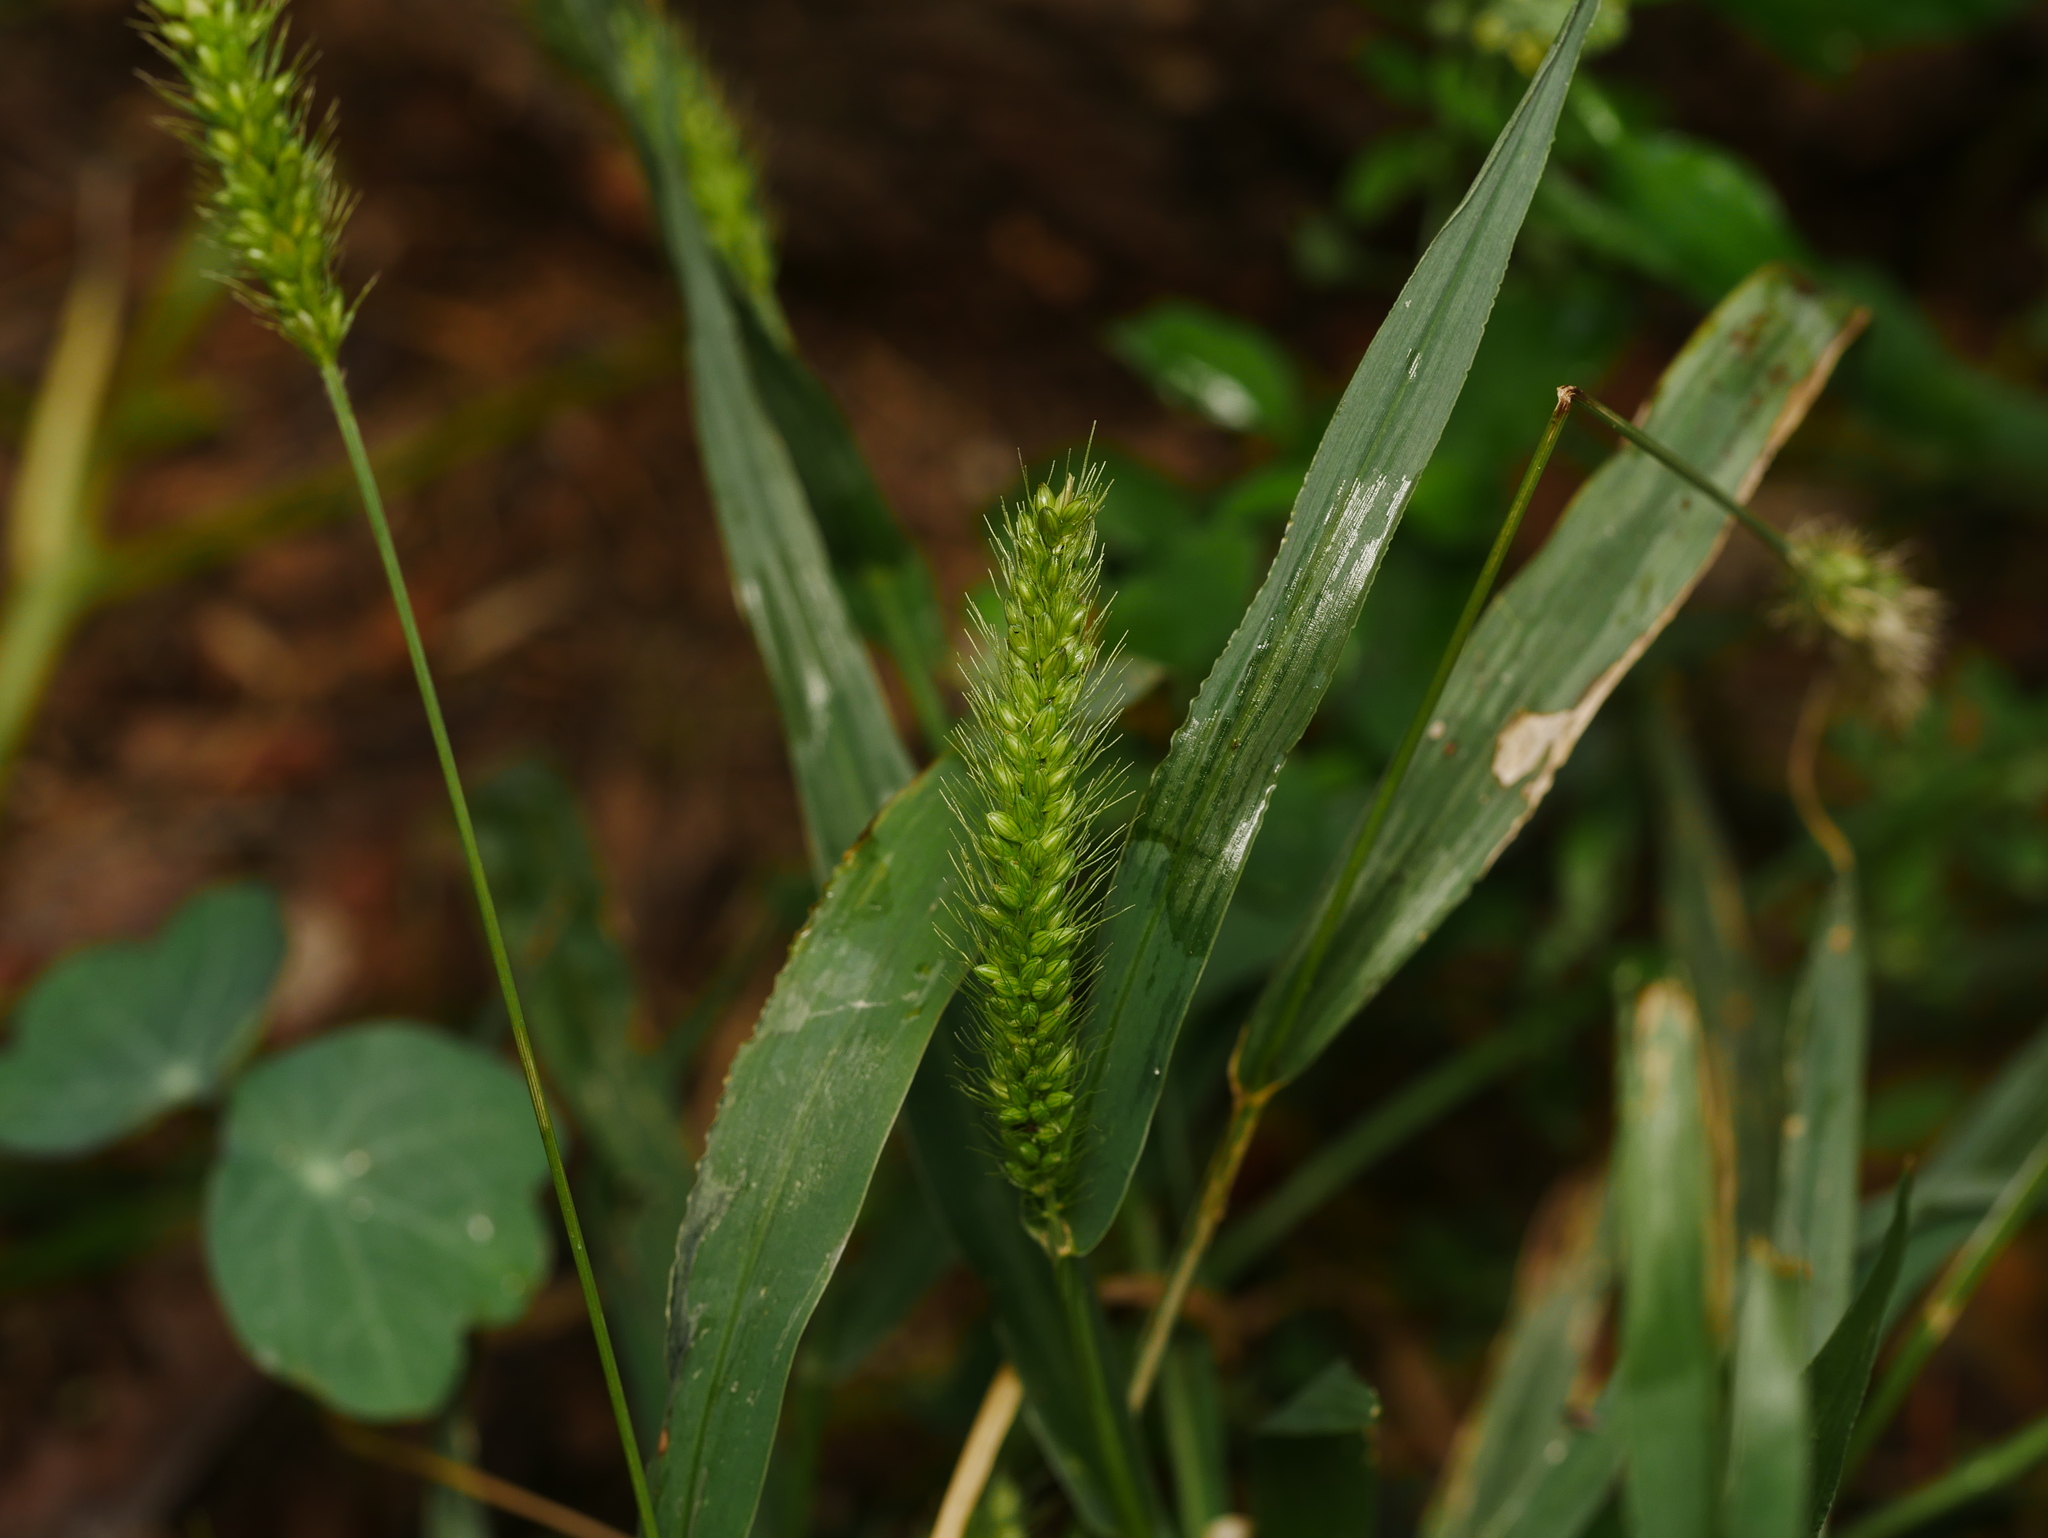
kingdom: Plantae
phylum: Tracheophyta
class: Liliopsida
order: Poales
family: Poaceae
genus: Setaria
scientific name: Setaria viridis
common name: Green bristlegrass
